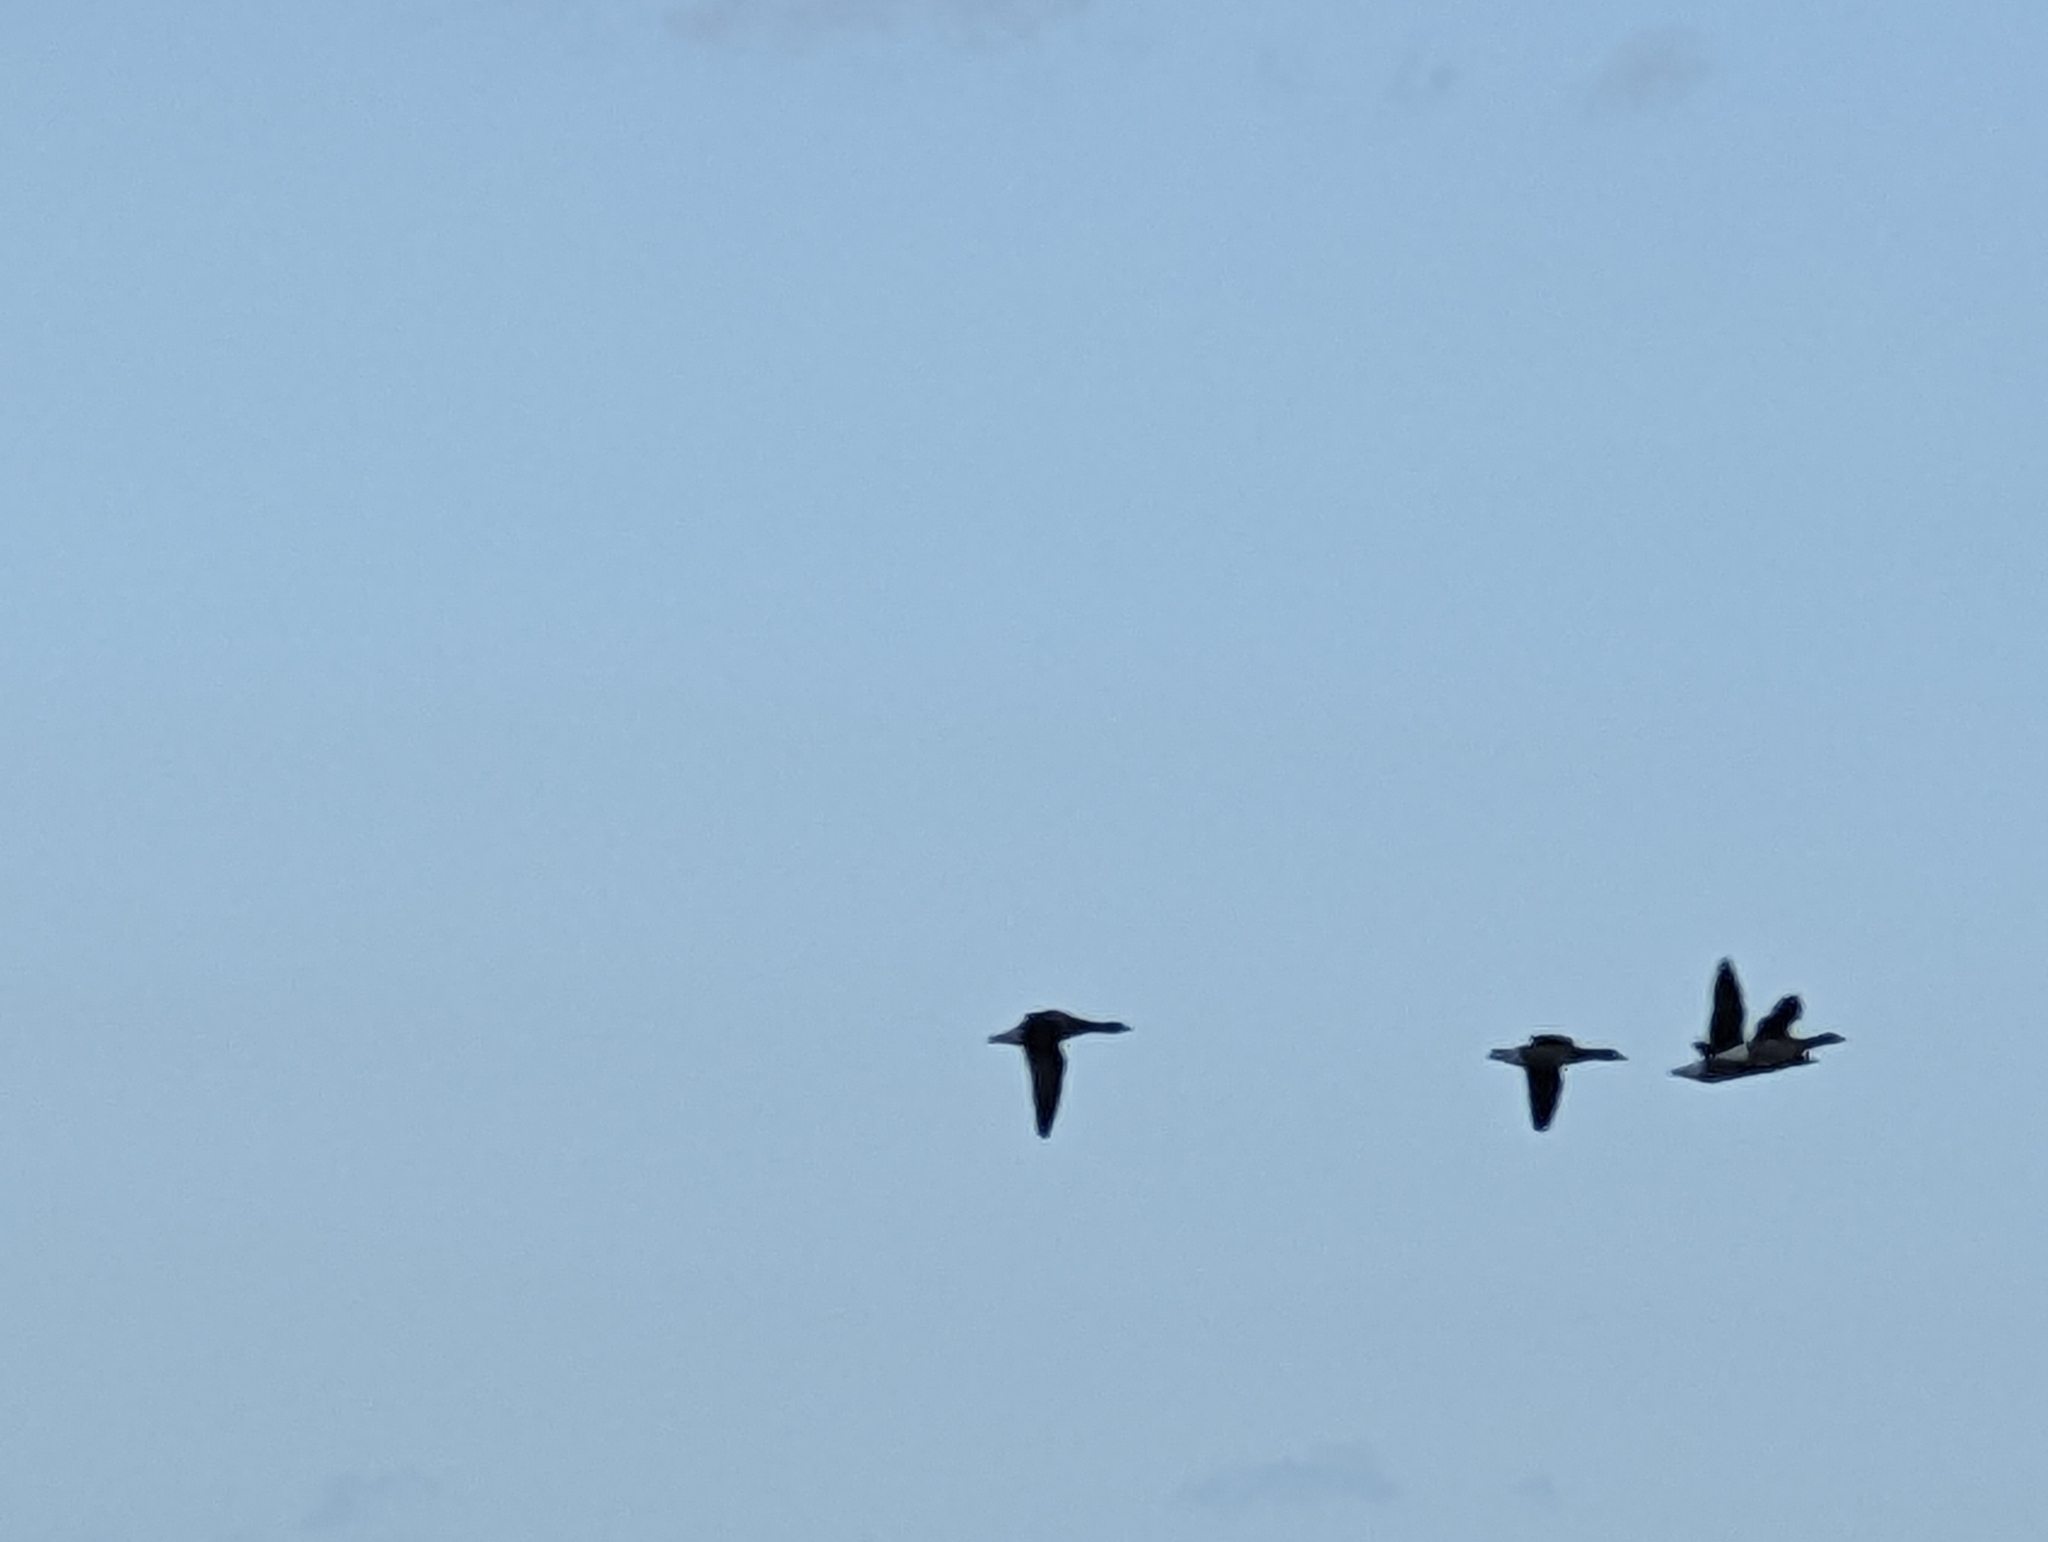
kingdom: Animalia
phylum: Chordata
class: Aves
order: Anseriformes
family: Anatidae
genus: Branta
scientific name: Branta bernicla
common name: Brant goose
